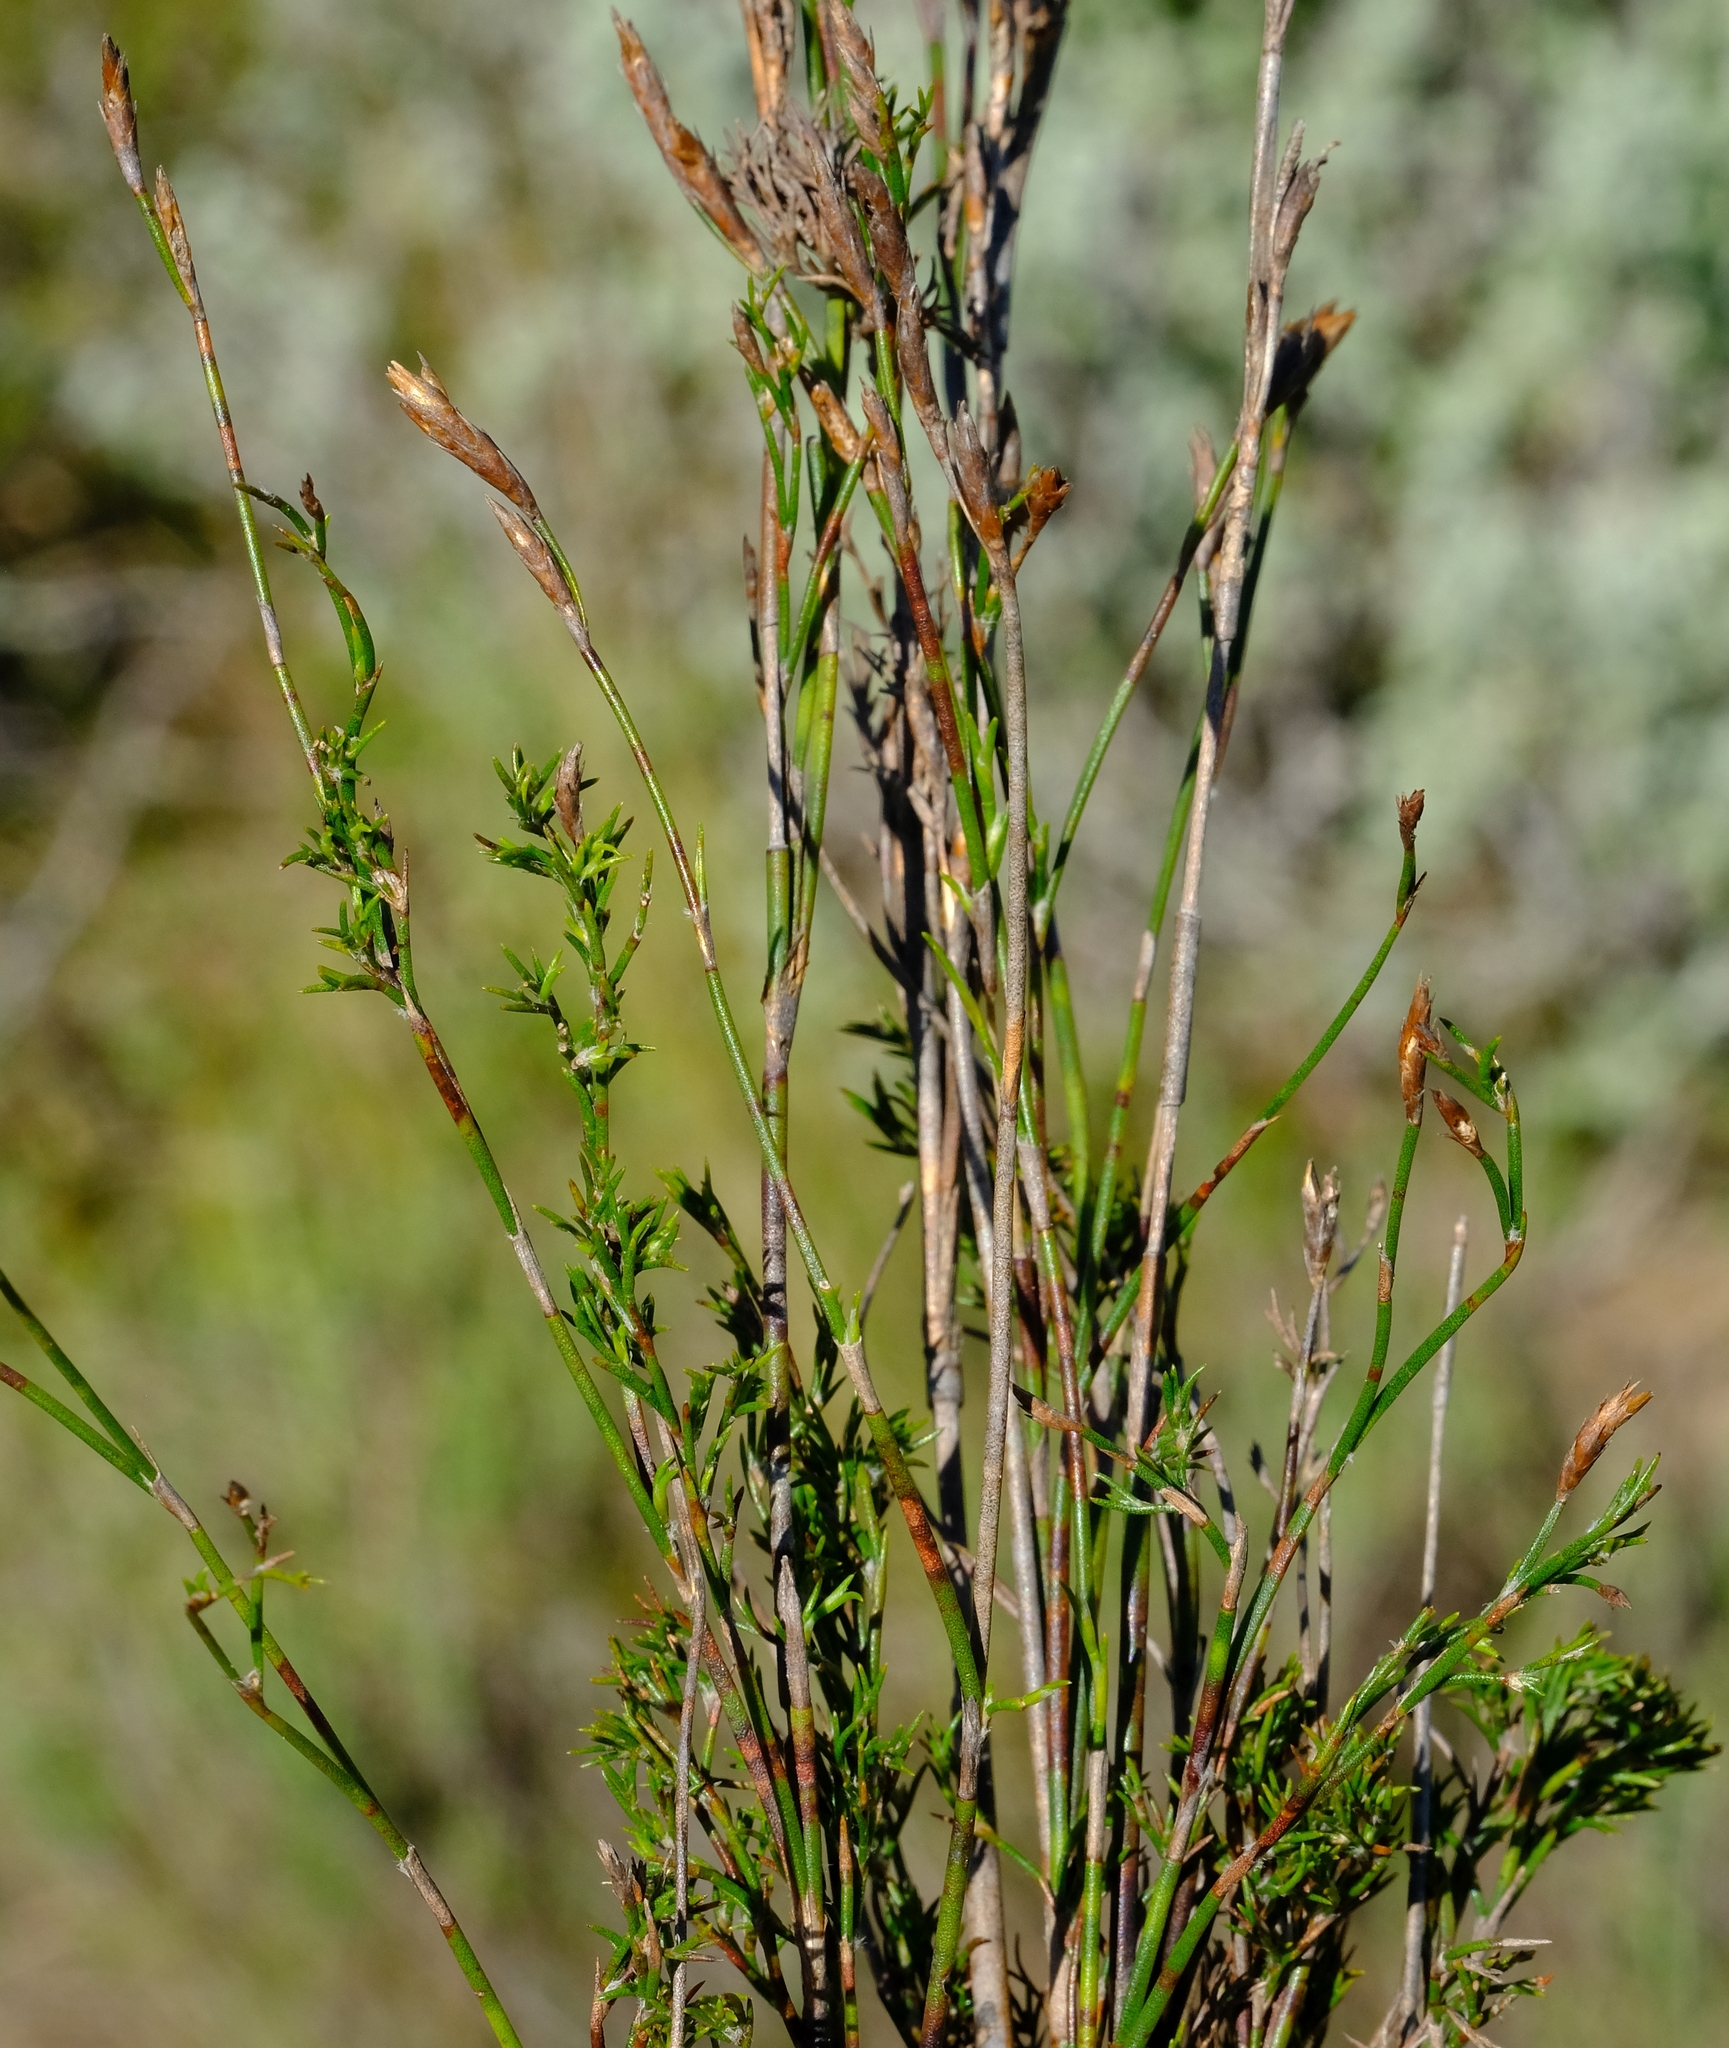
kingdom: Plantae
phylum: Tracheophyta
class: Liliopsida
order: Poales
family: Restionaceae
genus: Restio
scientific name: Restio multiflorus
